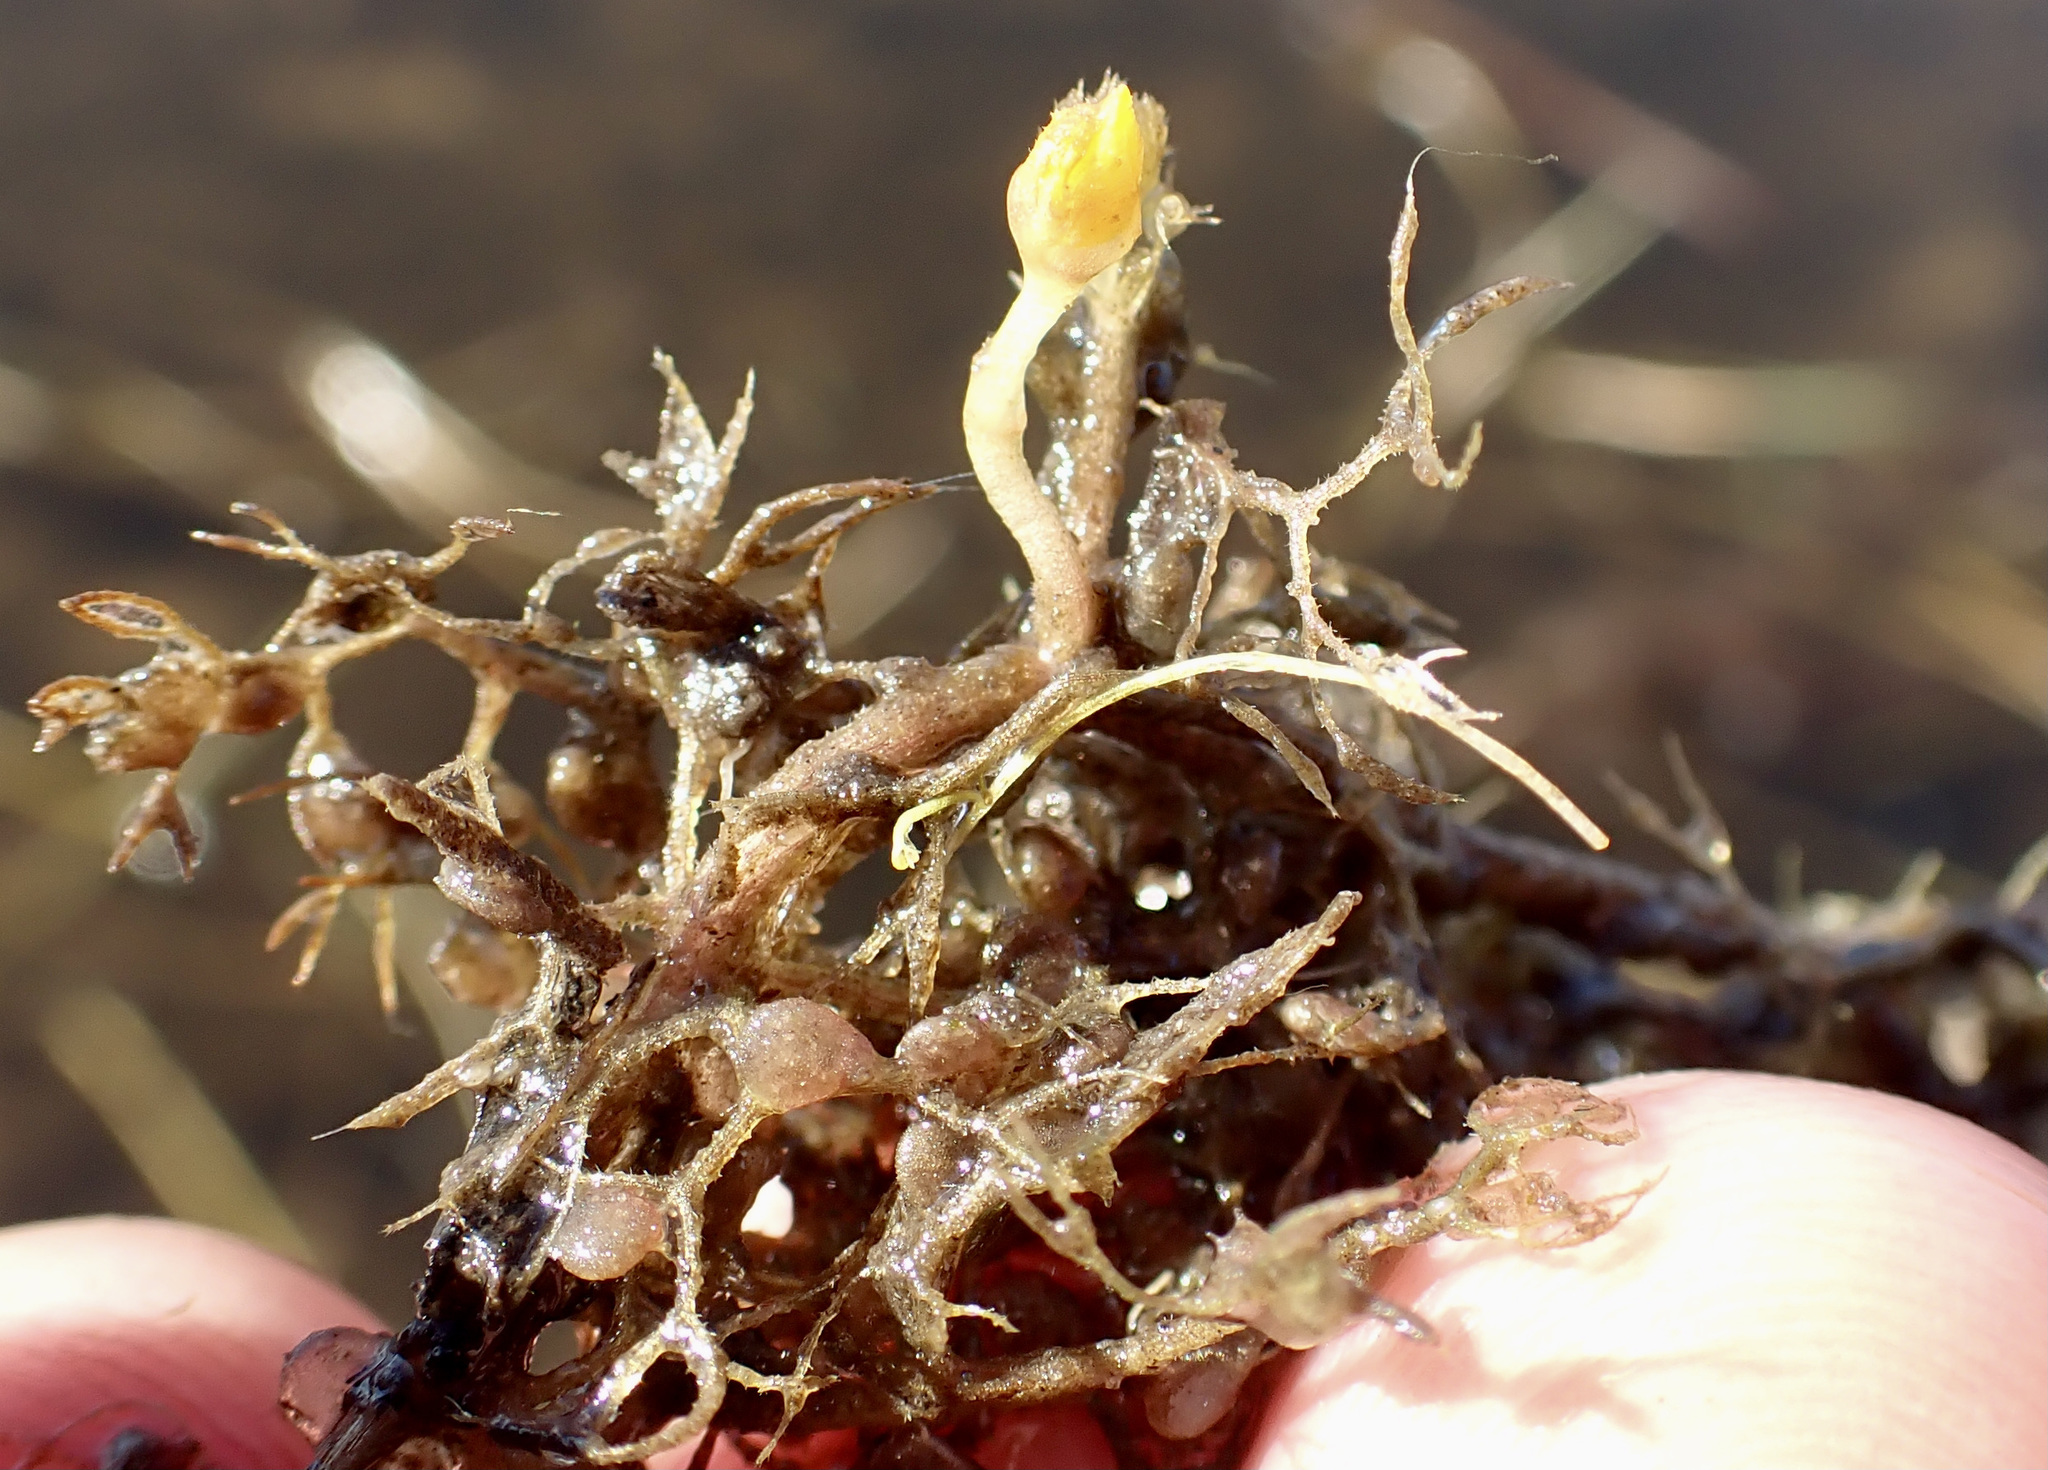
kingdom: Plantae
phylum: Tracheophyta
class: Magnoliopsida
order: Lamiales
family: Lentibulariaceae
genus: Utricularia
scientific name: Utricularia reflexa
